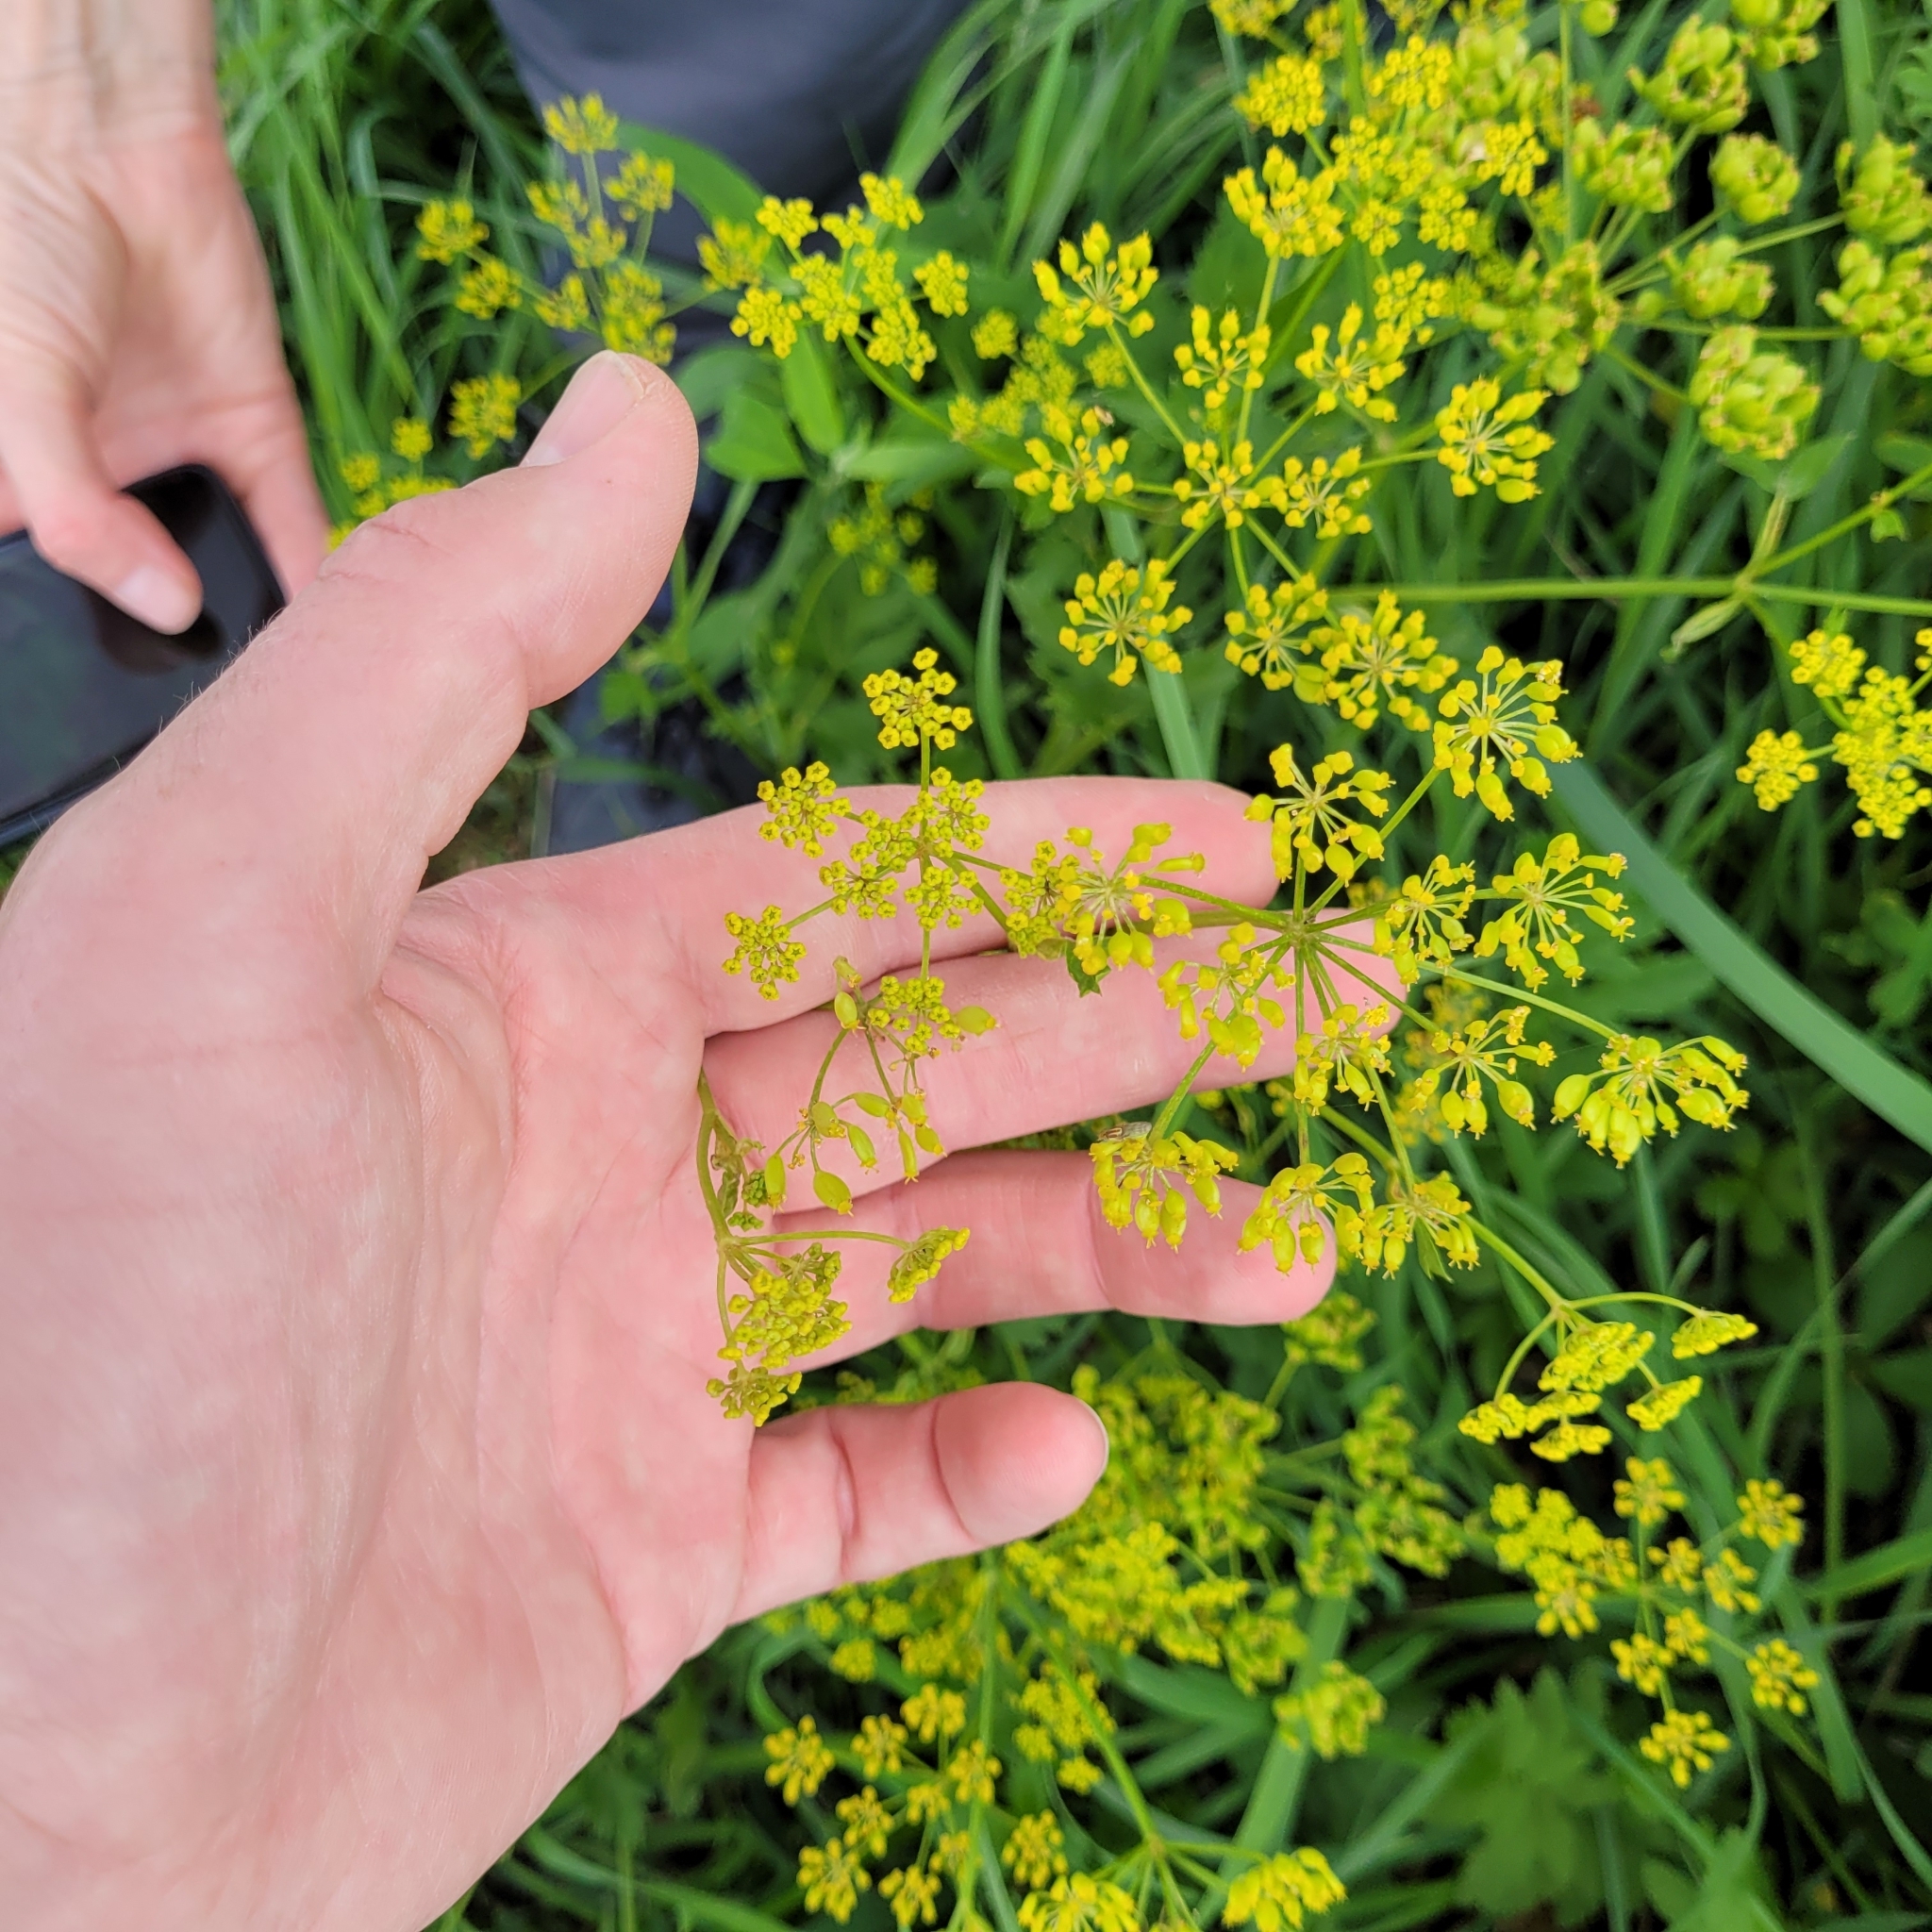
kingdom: Plantae
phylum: Tracheophyta
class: Magnoliopsida
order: Apiales
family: Apiaceae
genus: Pastinaca
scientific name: Pastinaca sativa
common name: Wild parsnip
